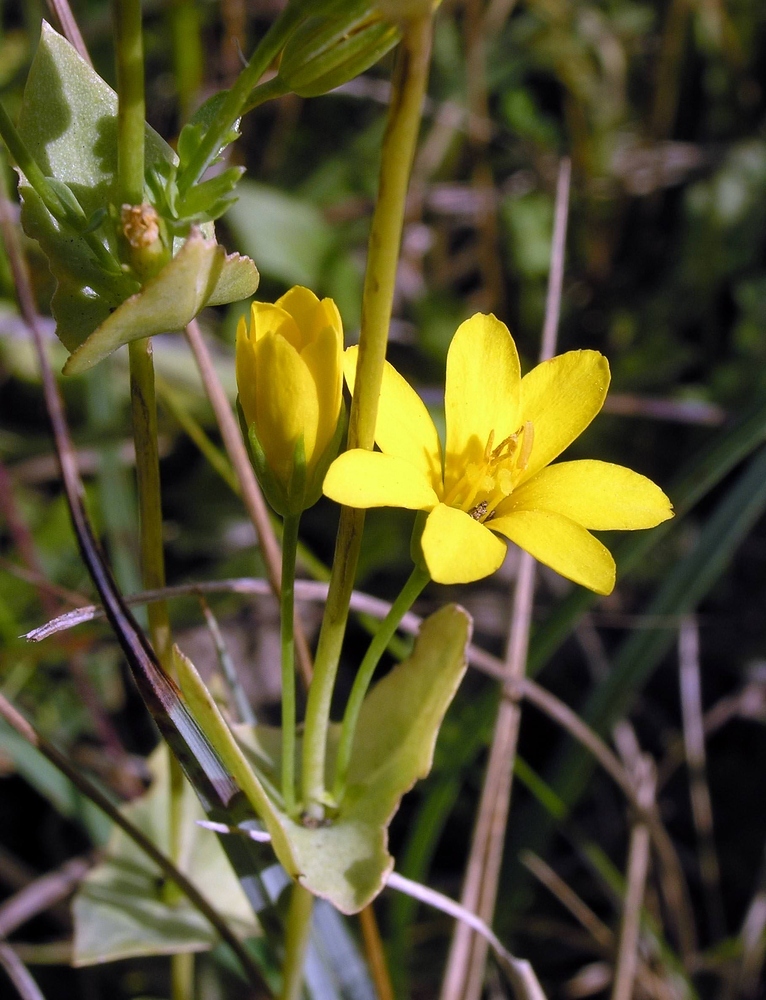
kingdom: Plantae
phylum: Tracheophyta
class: Magnoliopsida
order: Gentianales
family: Gentianaceae
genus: Blackstonia
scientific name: Blackstonia perfoliata
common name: Yellow-wort
